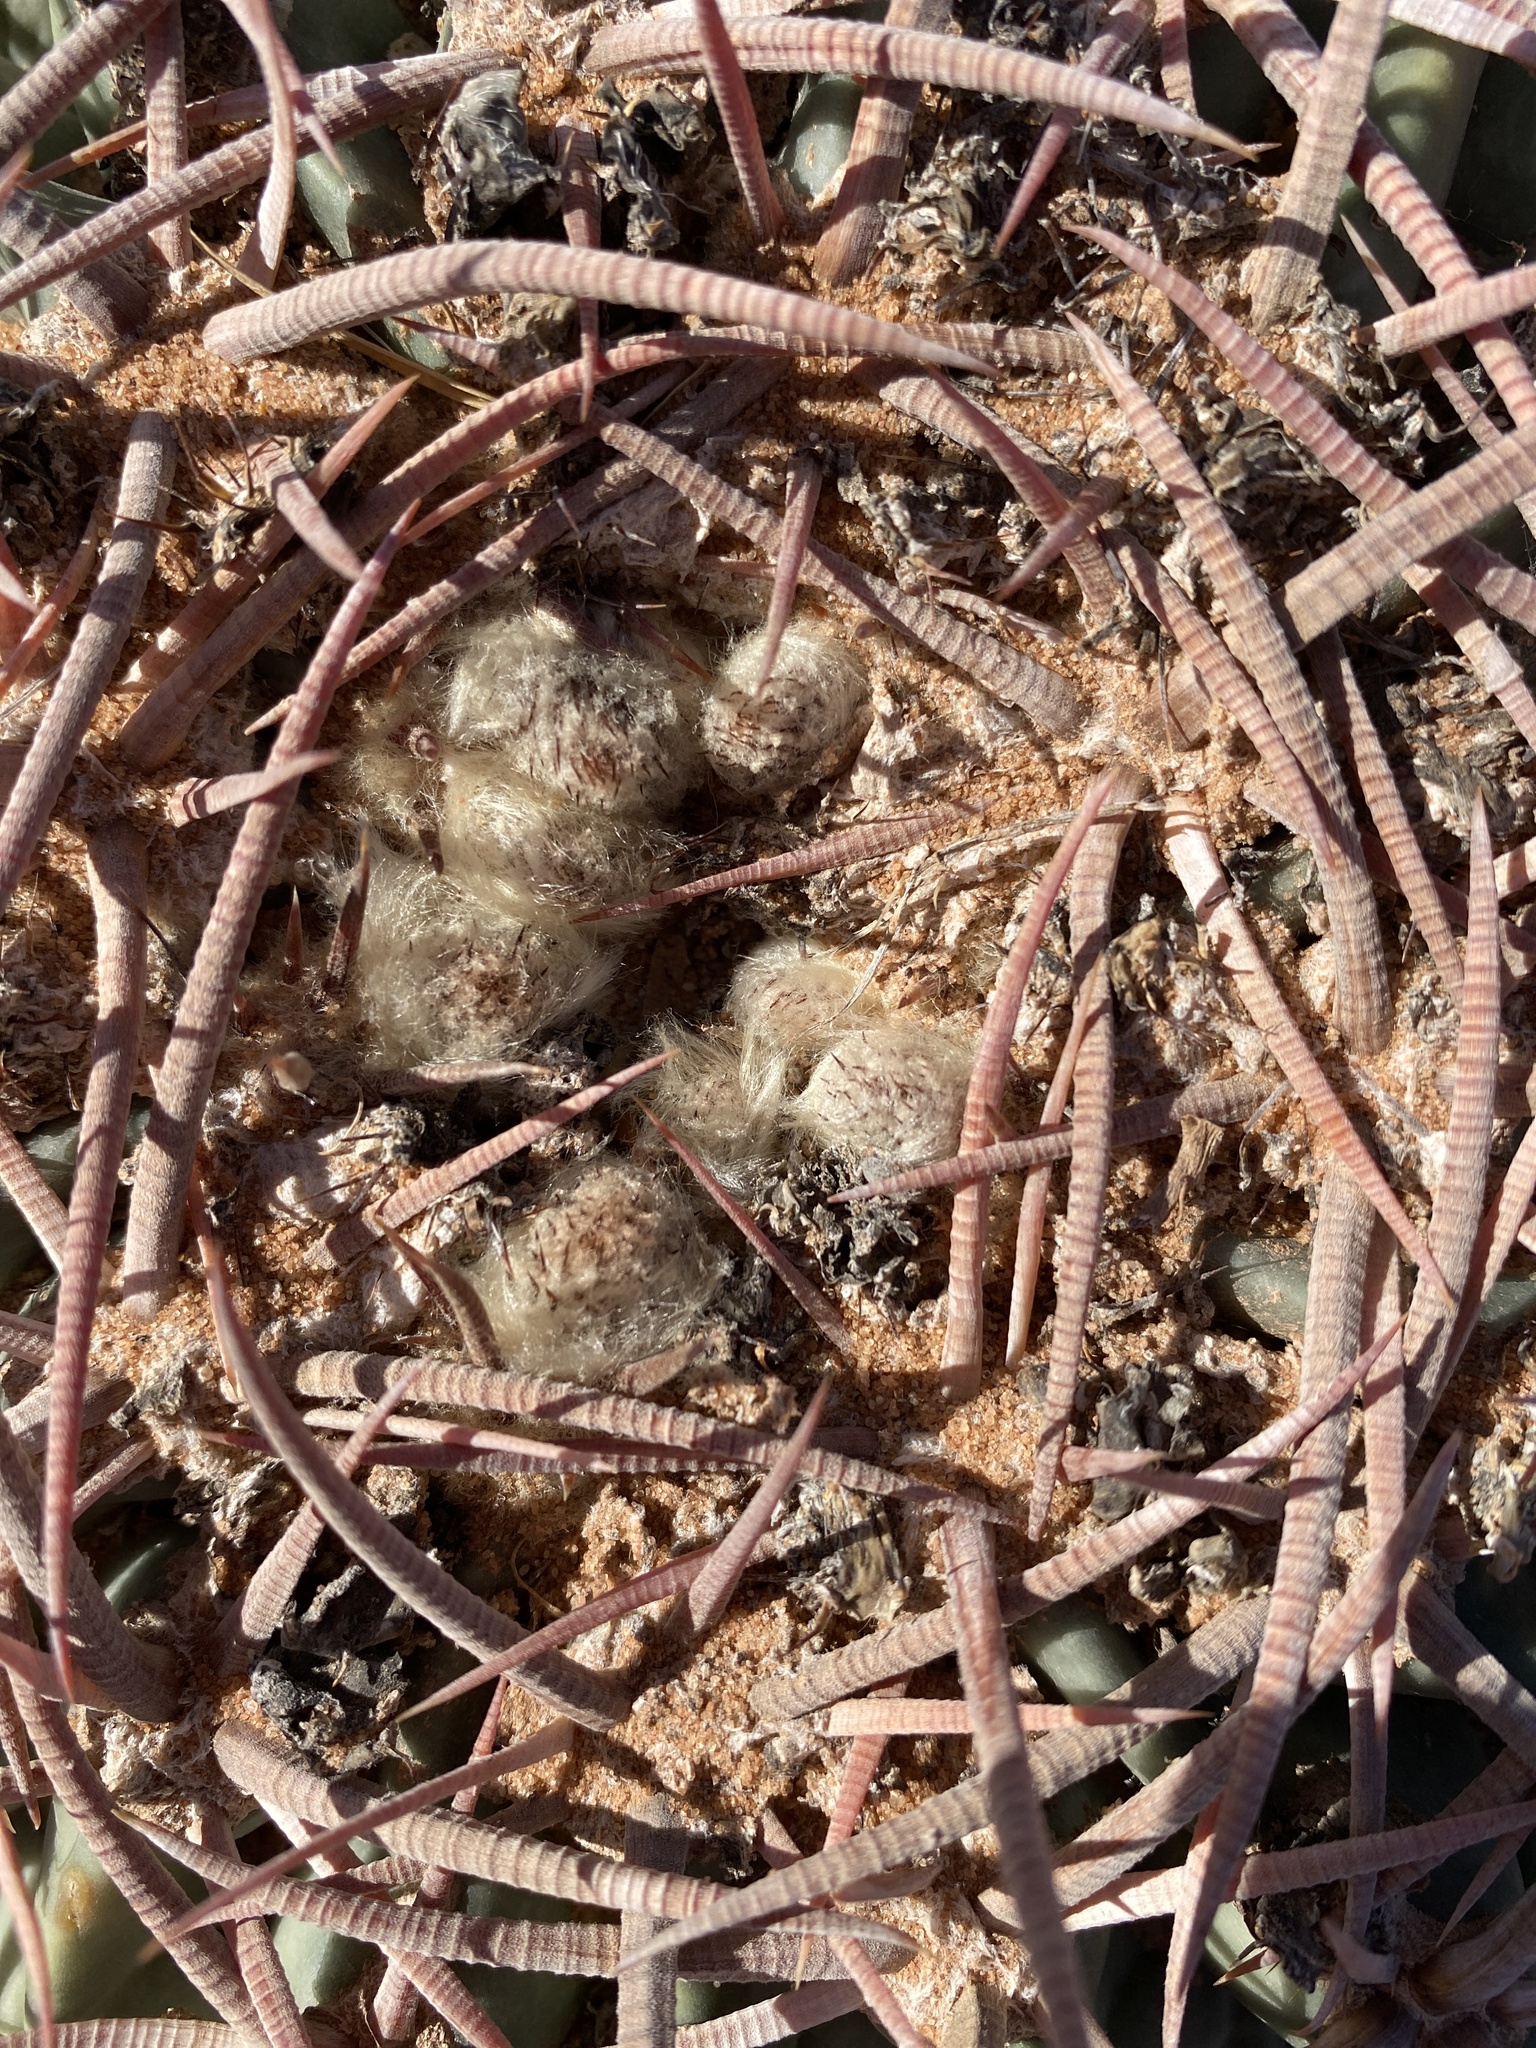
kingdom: Plantae
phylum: Tracheophyta
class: Magnoliopsida
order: Caryophyllales
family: Cactaceae
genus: Echinocactus
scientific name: Echinocactus texensis
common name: Devil's pincushion
